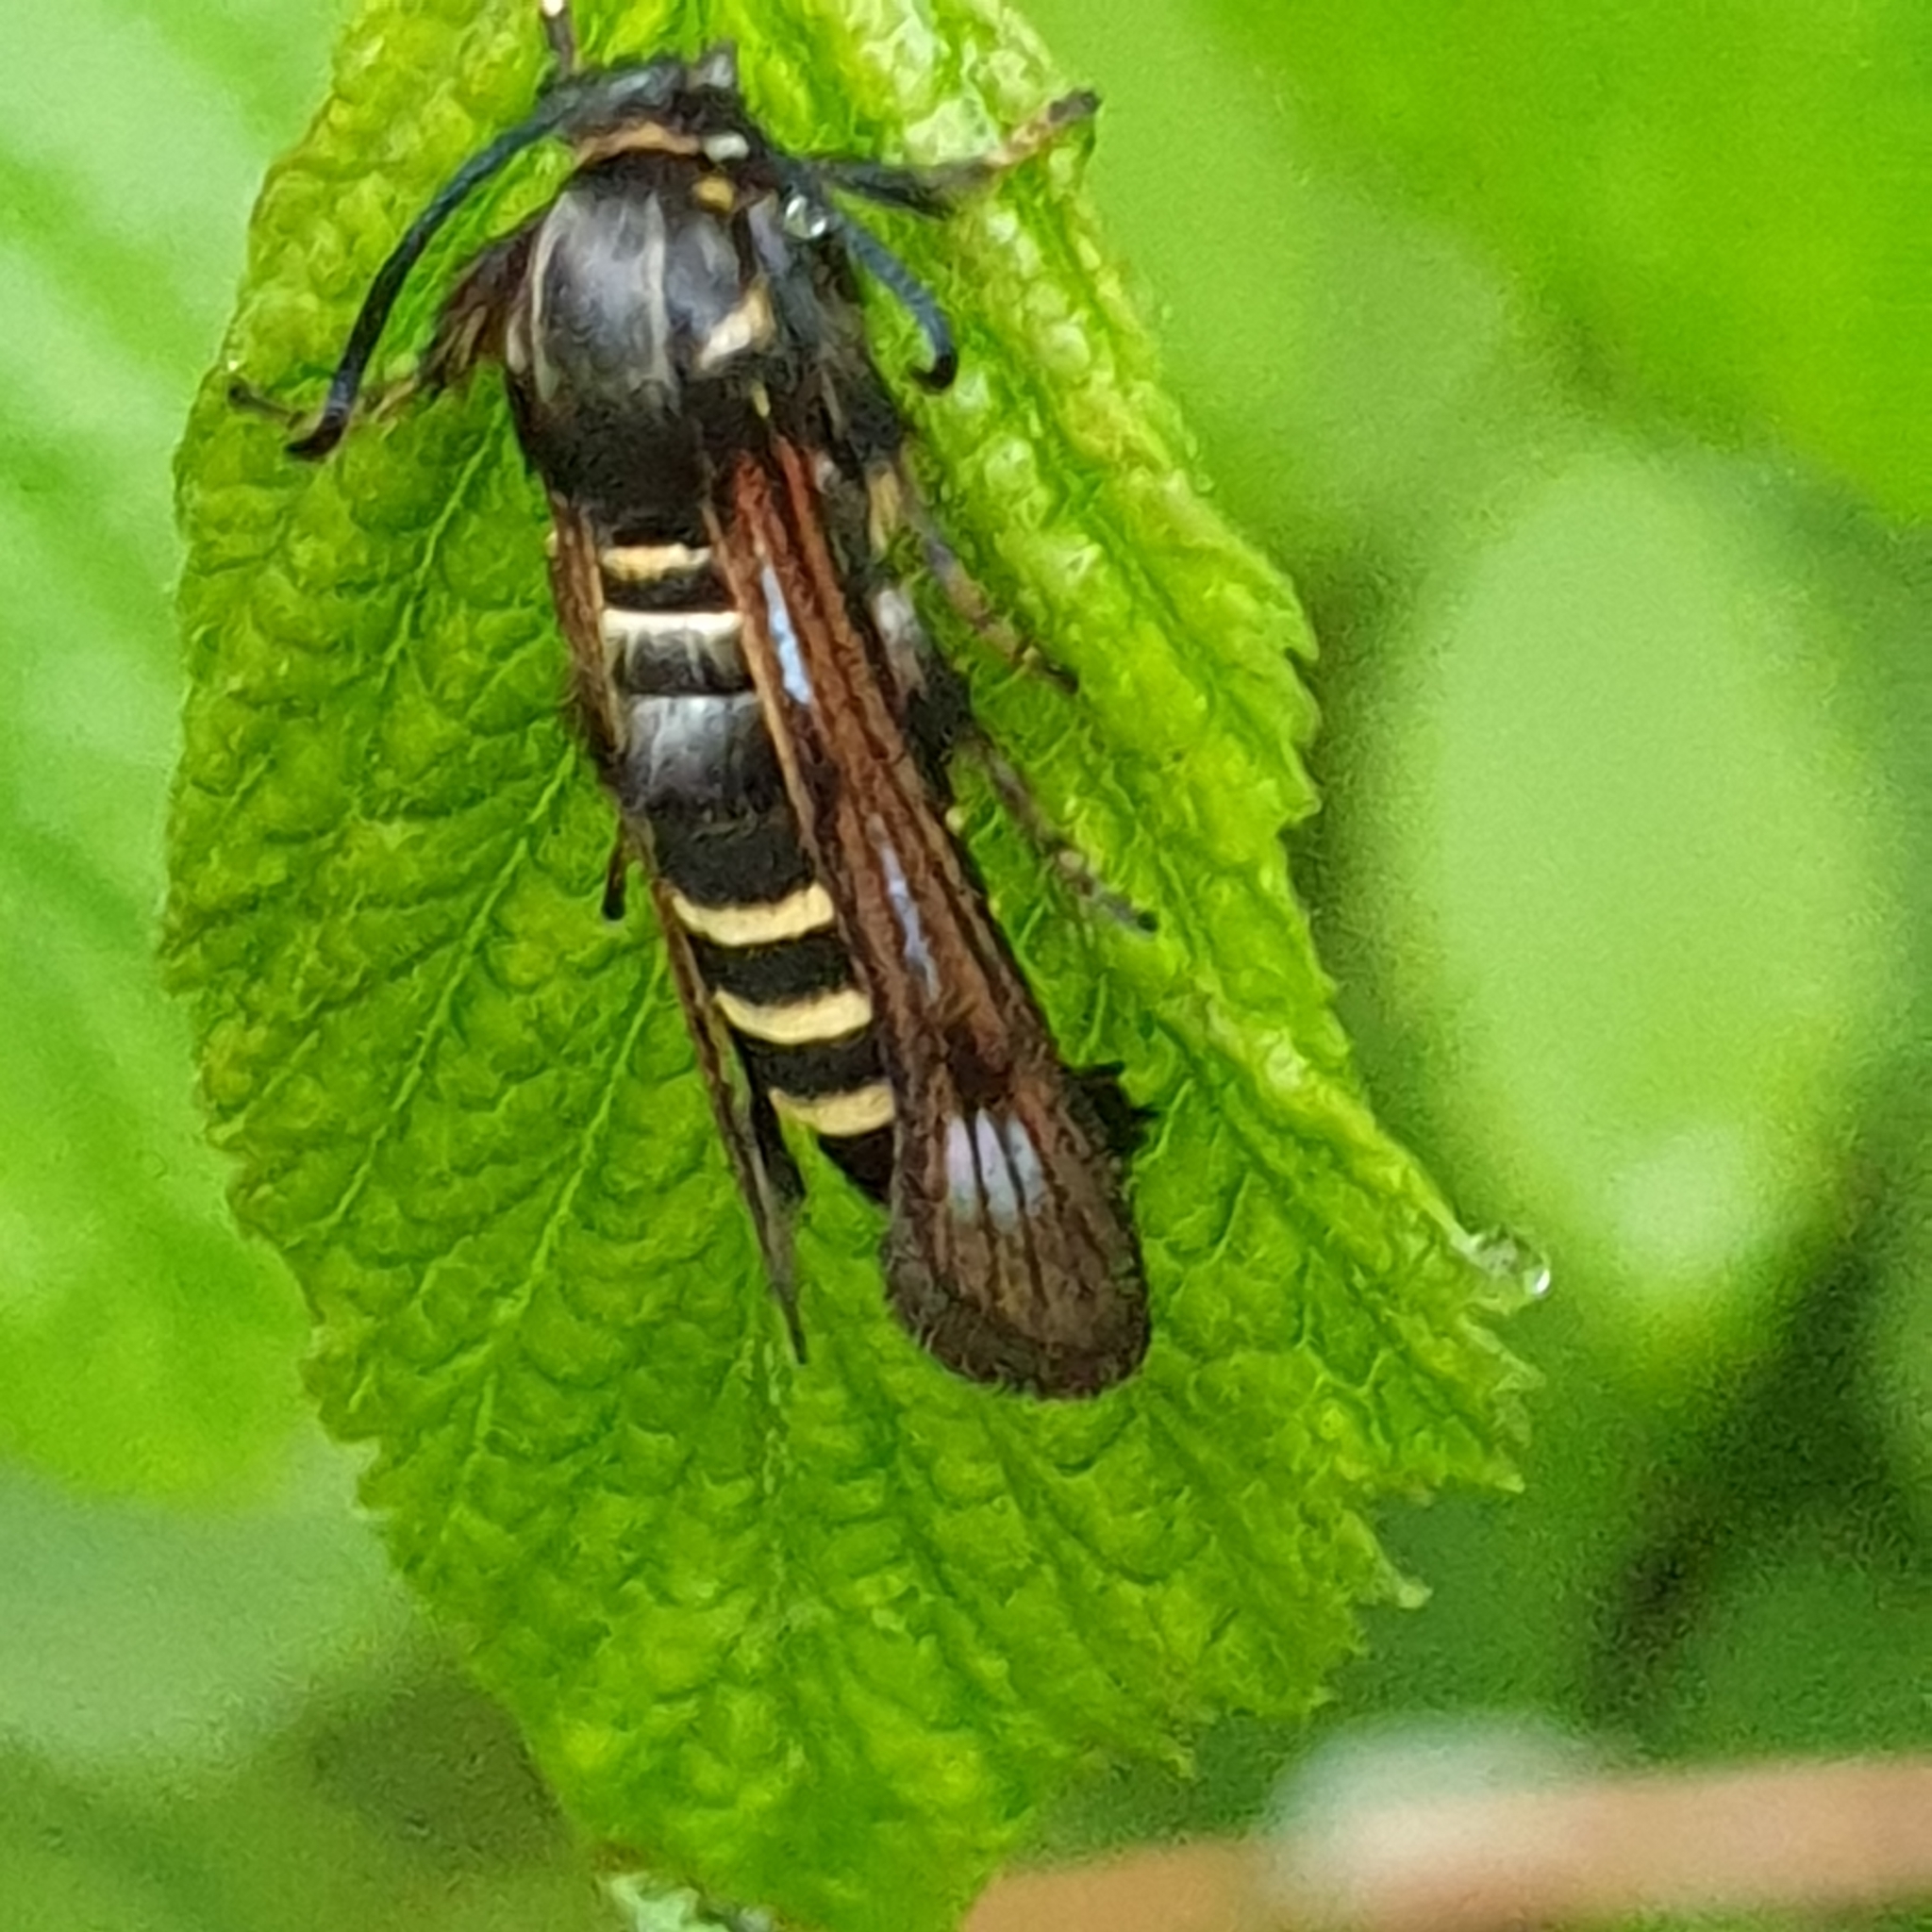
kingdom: Animalia
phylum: Arthropoda
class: Insecta
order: Lepidoptera
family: Sesiidae
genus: Pennisetia
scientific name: Pennisetia hylaeiformis
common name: Raspberry clearwing
